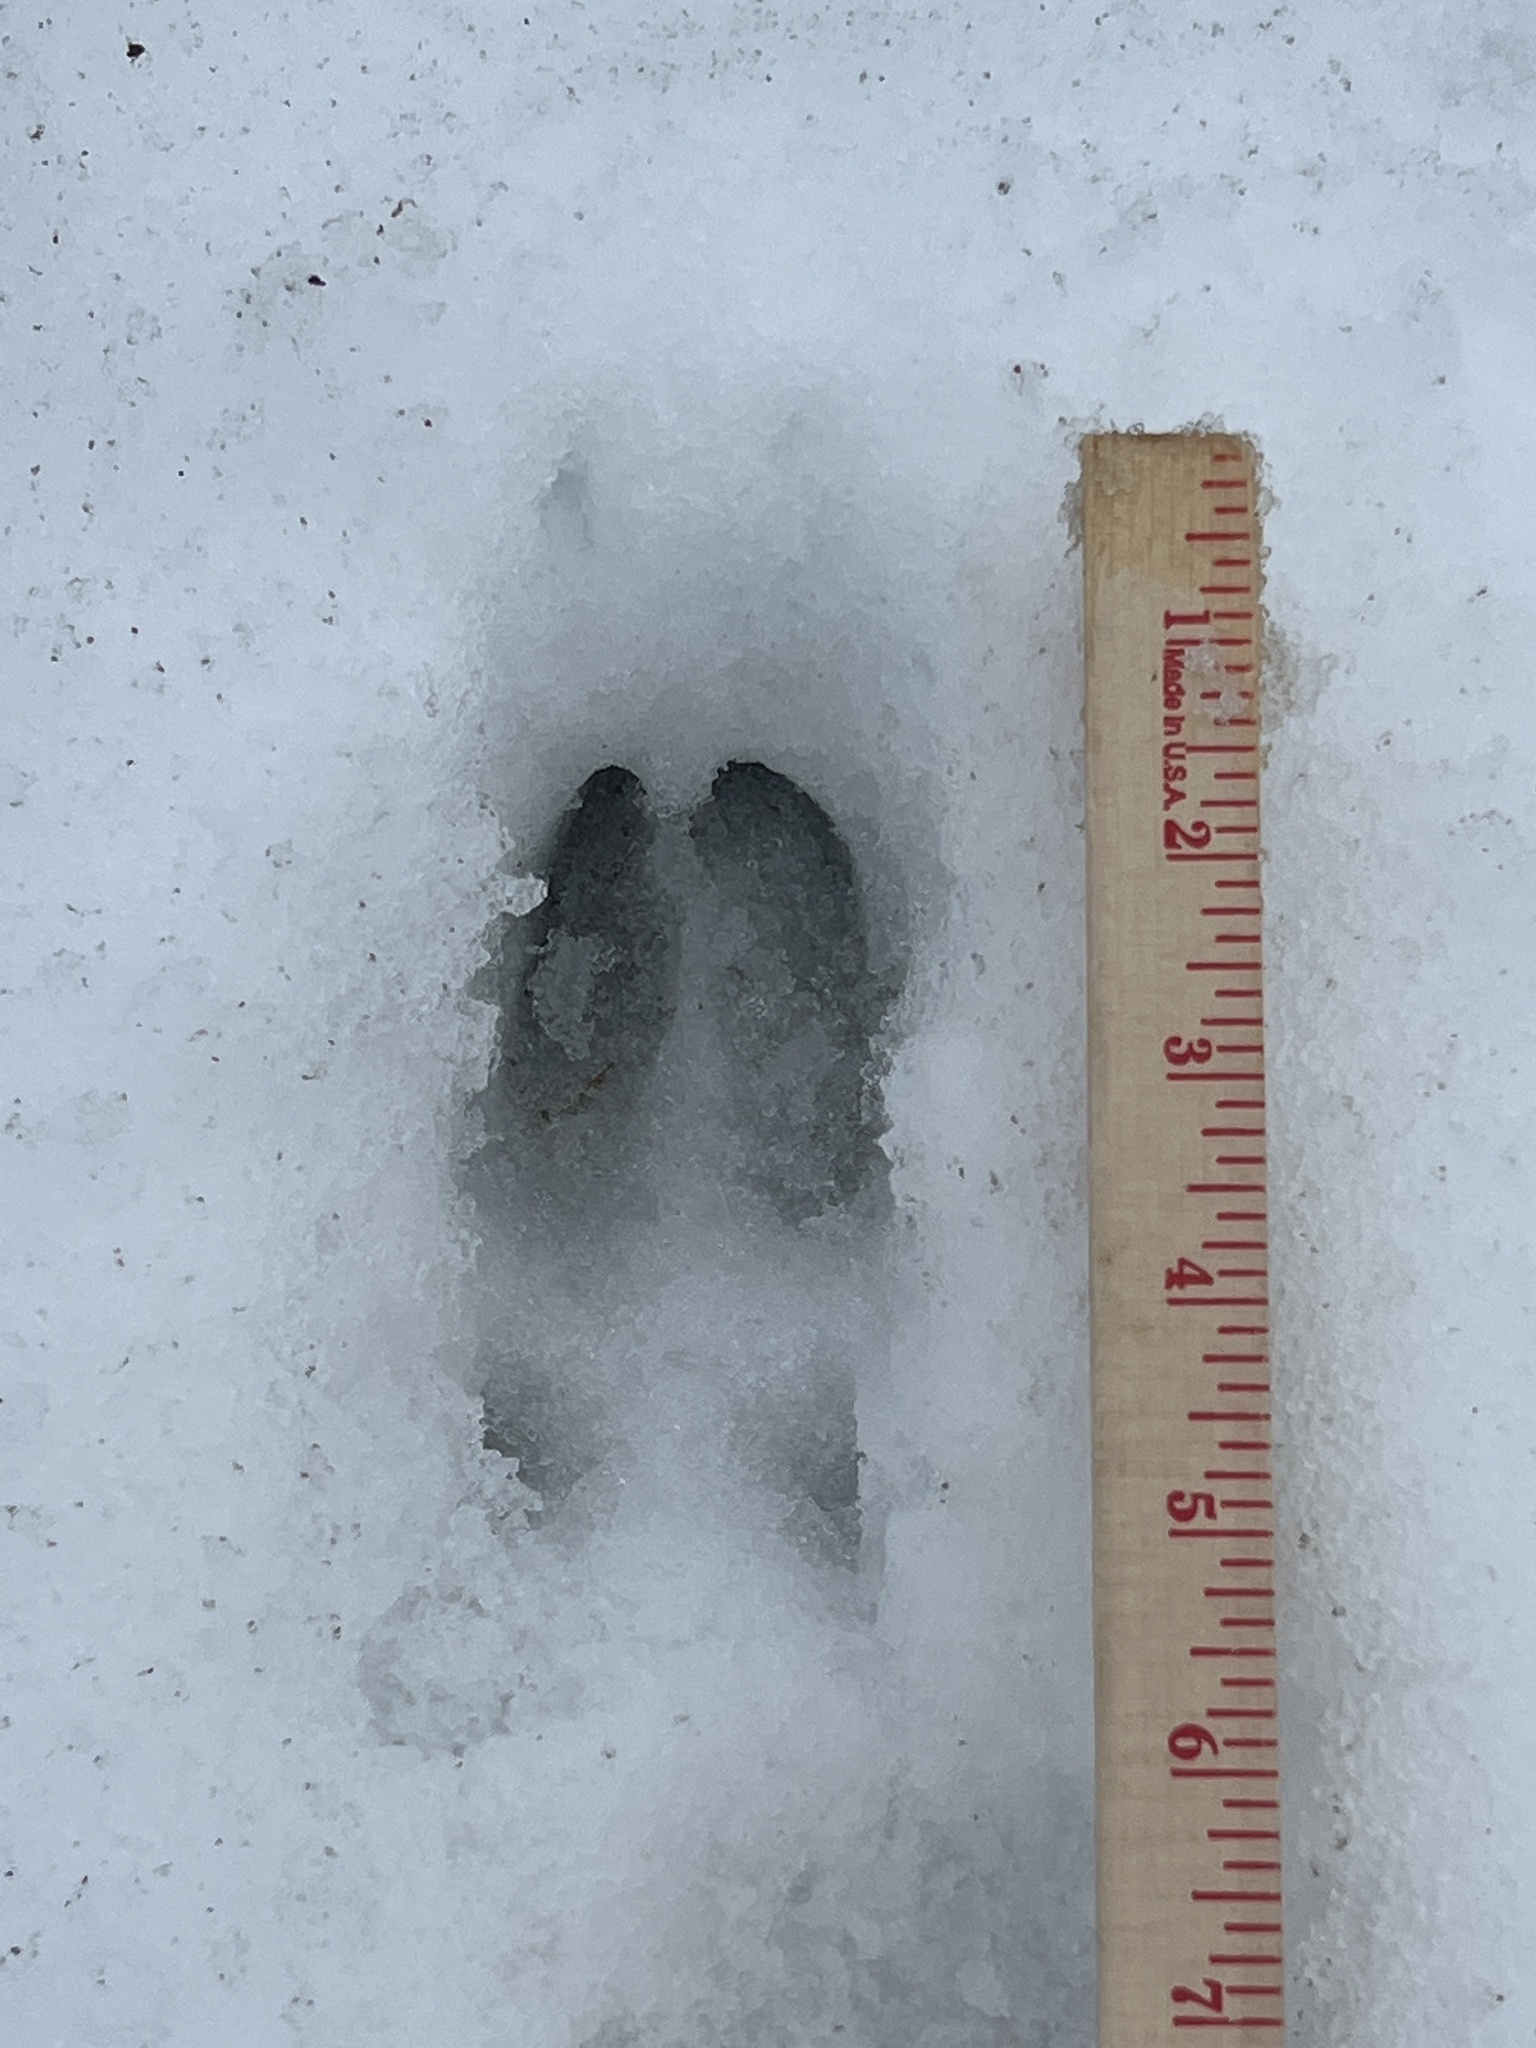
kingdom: Animalia
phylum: Chordata
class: Mammalia
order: Artiodactyla
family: Cervidae
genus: Odocoileus
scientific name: Odocoileus virginianus
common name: White-tailed deer
